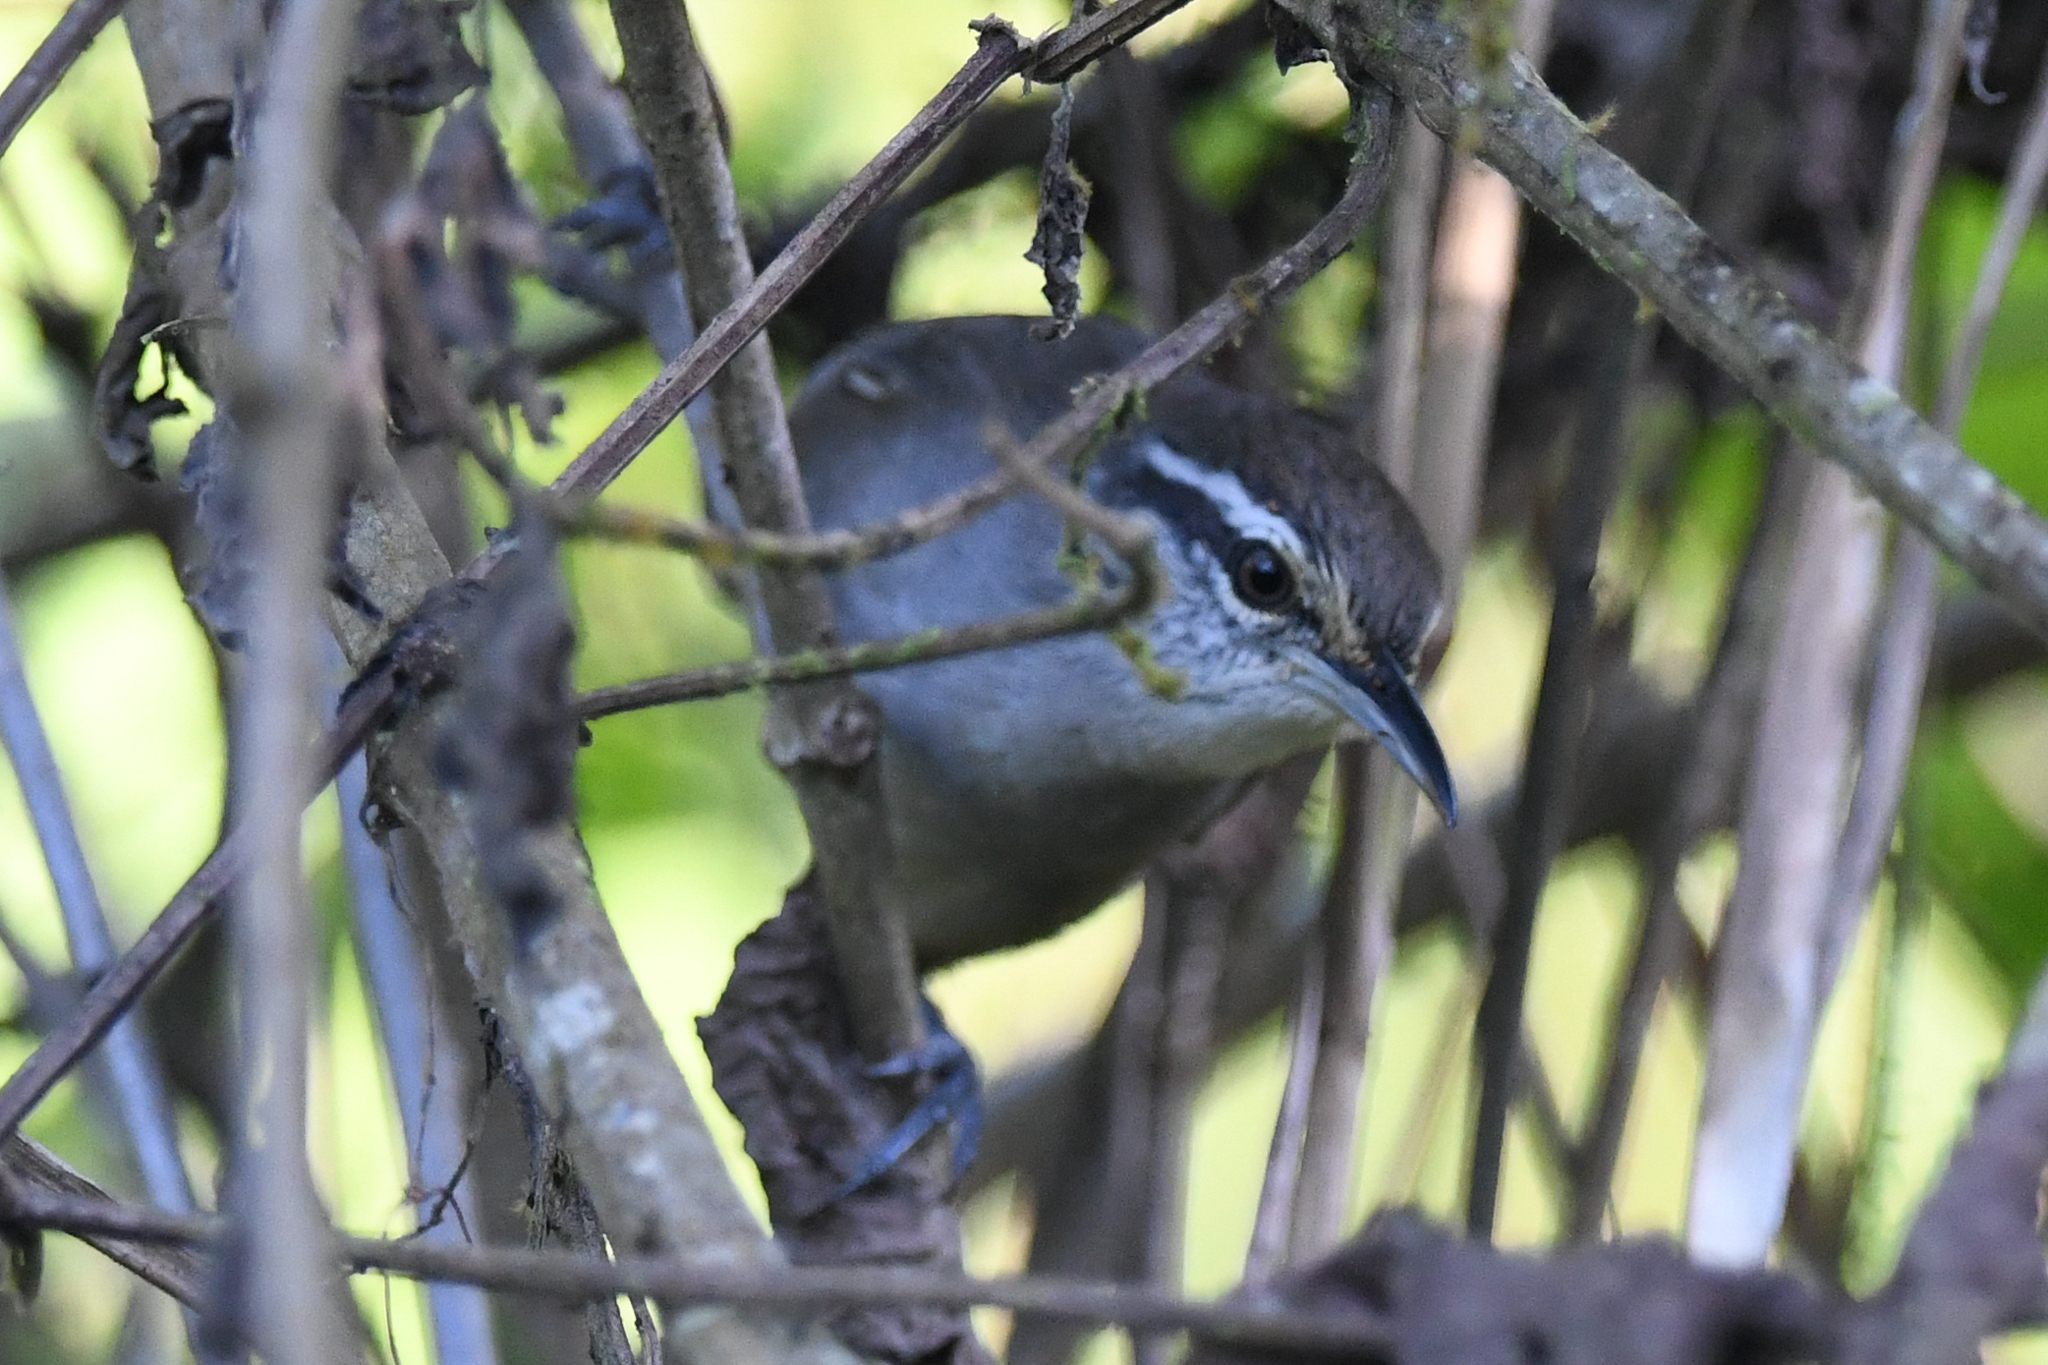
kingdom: Animalia
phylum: Chordata
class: Aves
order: Passeriformes
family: Troglodytidae
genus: Cantorchilus
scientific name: Cantorchilus modestus
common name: Cabanis's wren
